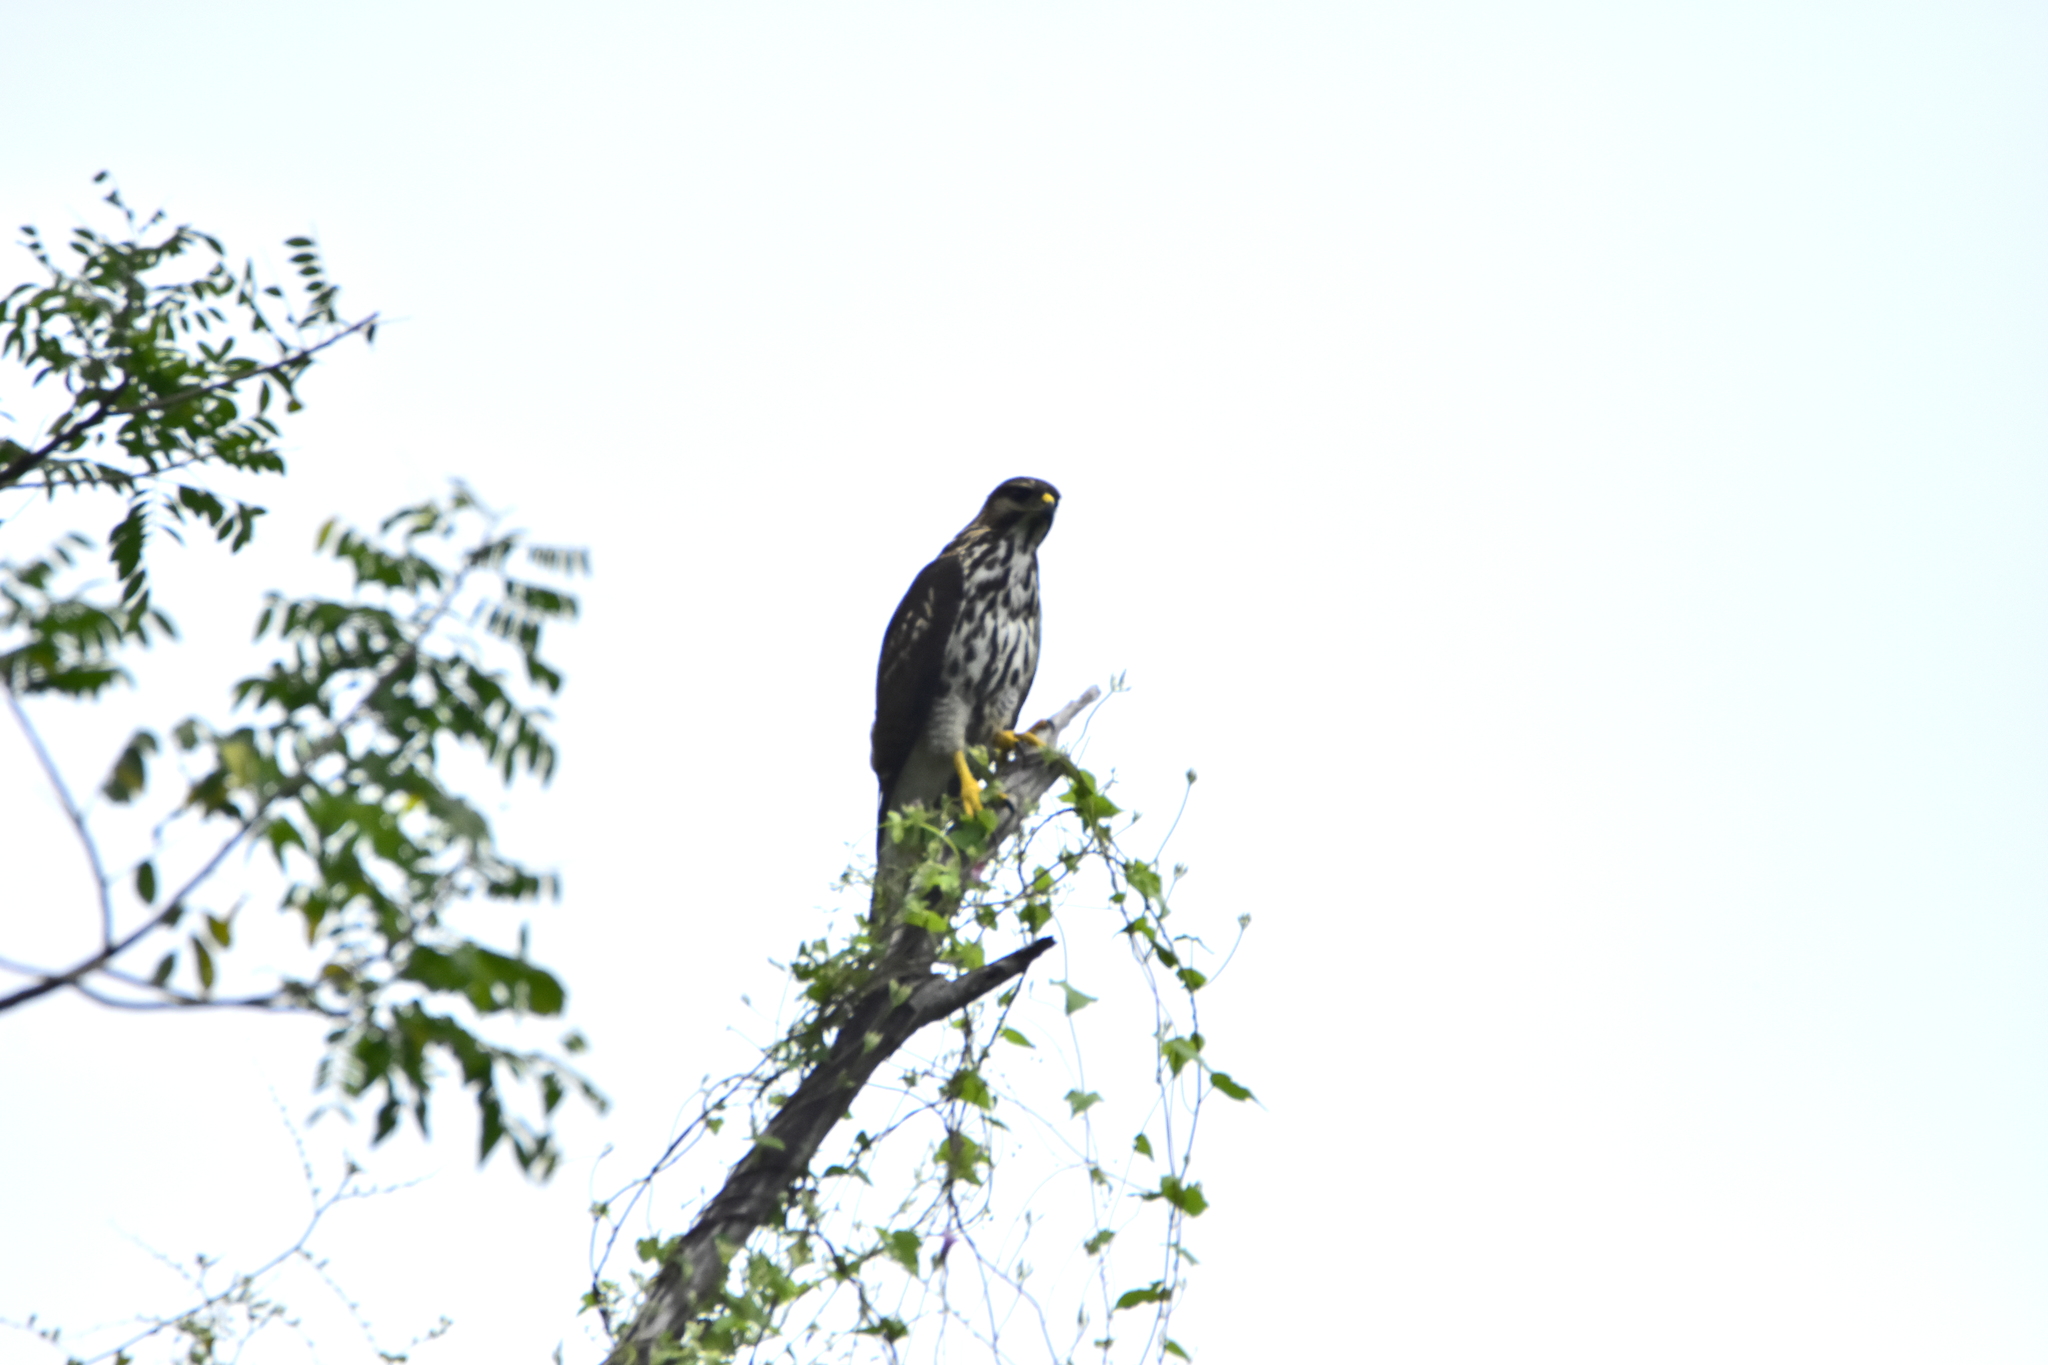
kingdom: Animalia
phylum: Chordata
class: Aves
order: Accipitriformes
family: Accipitridae
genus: Buteo
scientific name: Buteo nitidus
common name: Grey-lined hawk
